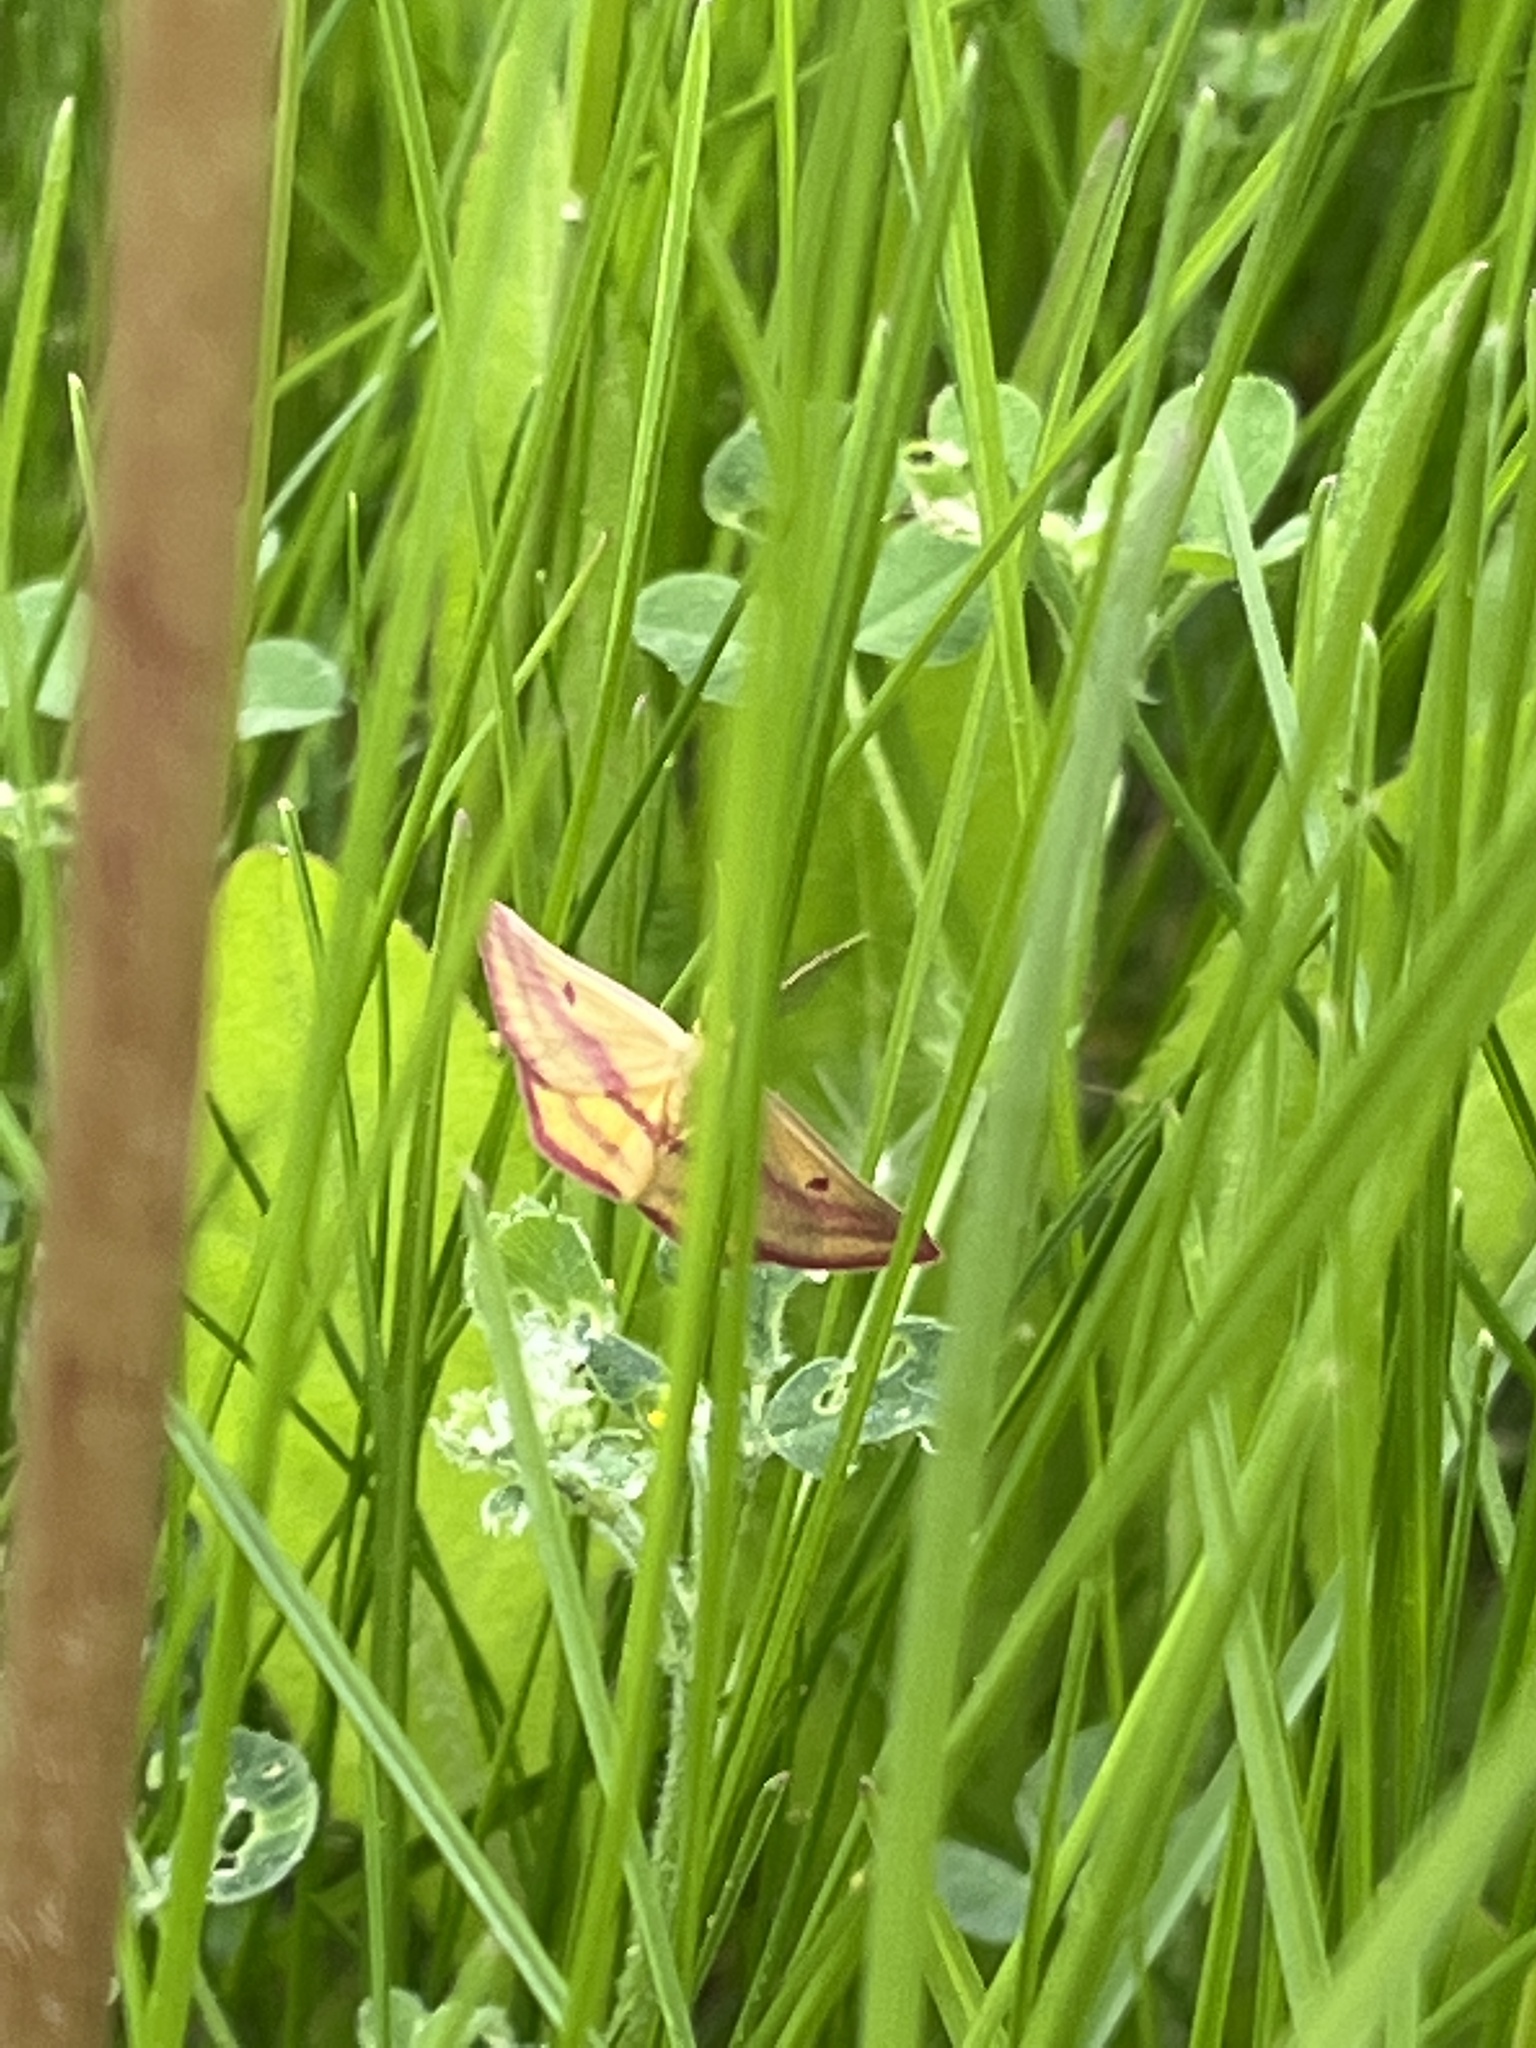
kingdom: Animalia
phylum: Arthropoda
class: Insecta
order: Lepidoptera
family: Geometridae
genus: Haematopis
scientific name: Haematopis grataria
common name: Chickweed geometer
